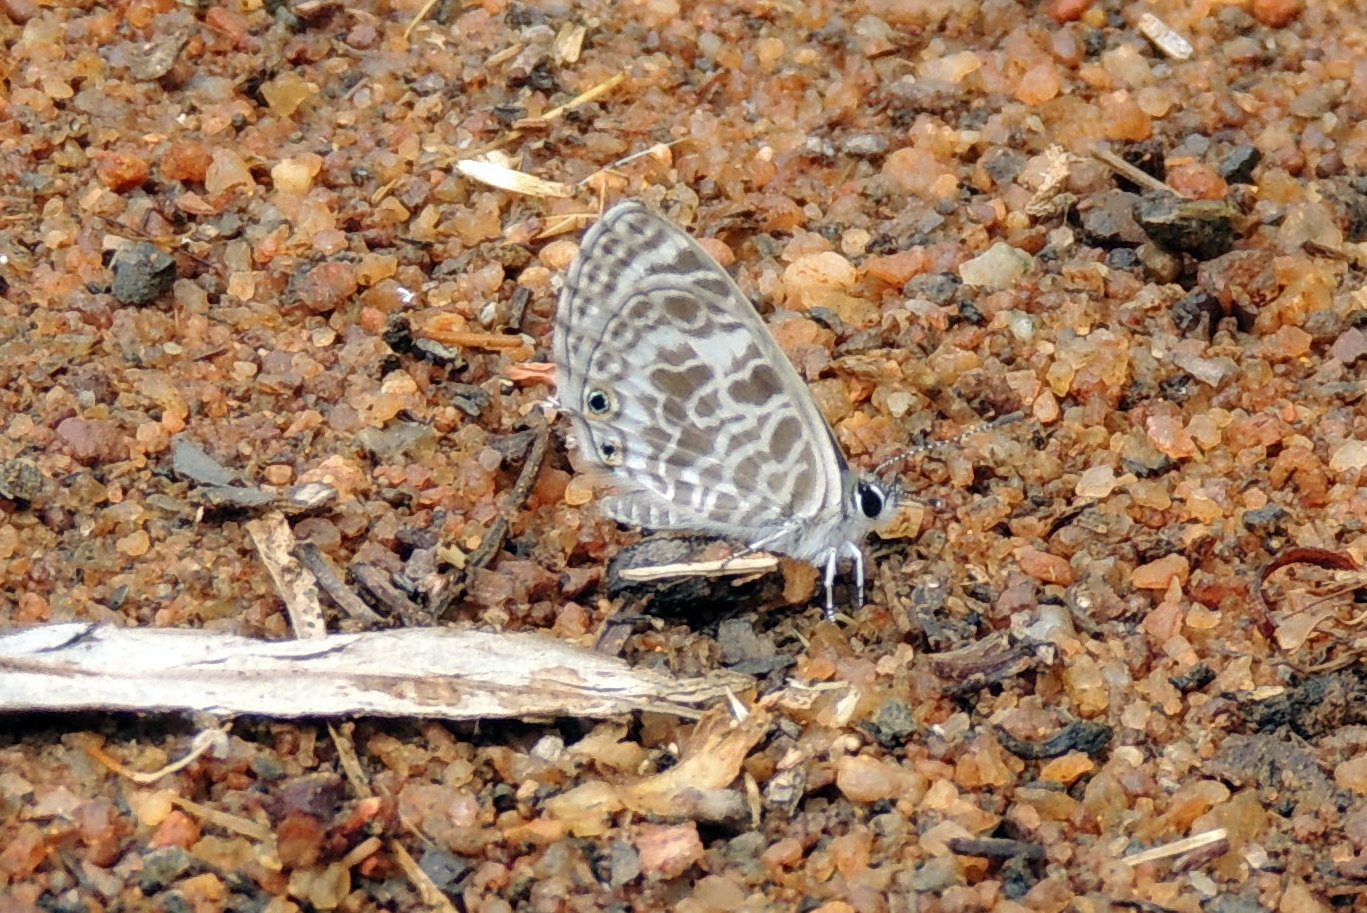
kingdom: Animalia
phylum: Arthropoda
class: Insecta
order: Lepidoptera
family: Lycaenidae
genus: Leptotes
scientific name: Leptotes plinius
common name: Zebra blue
